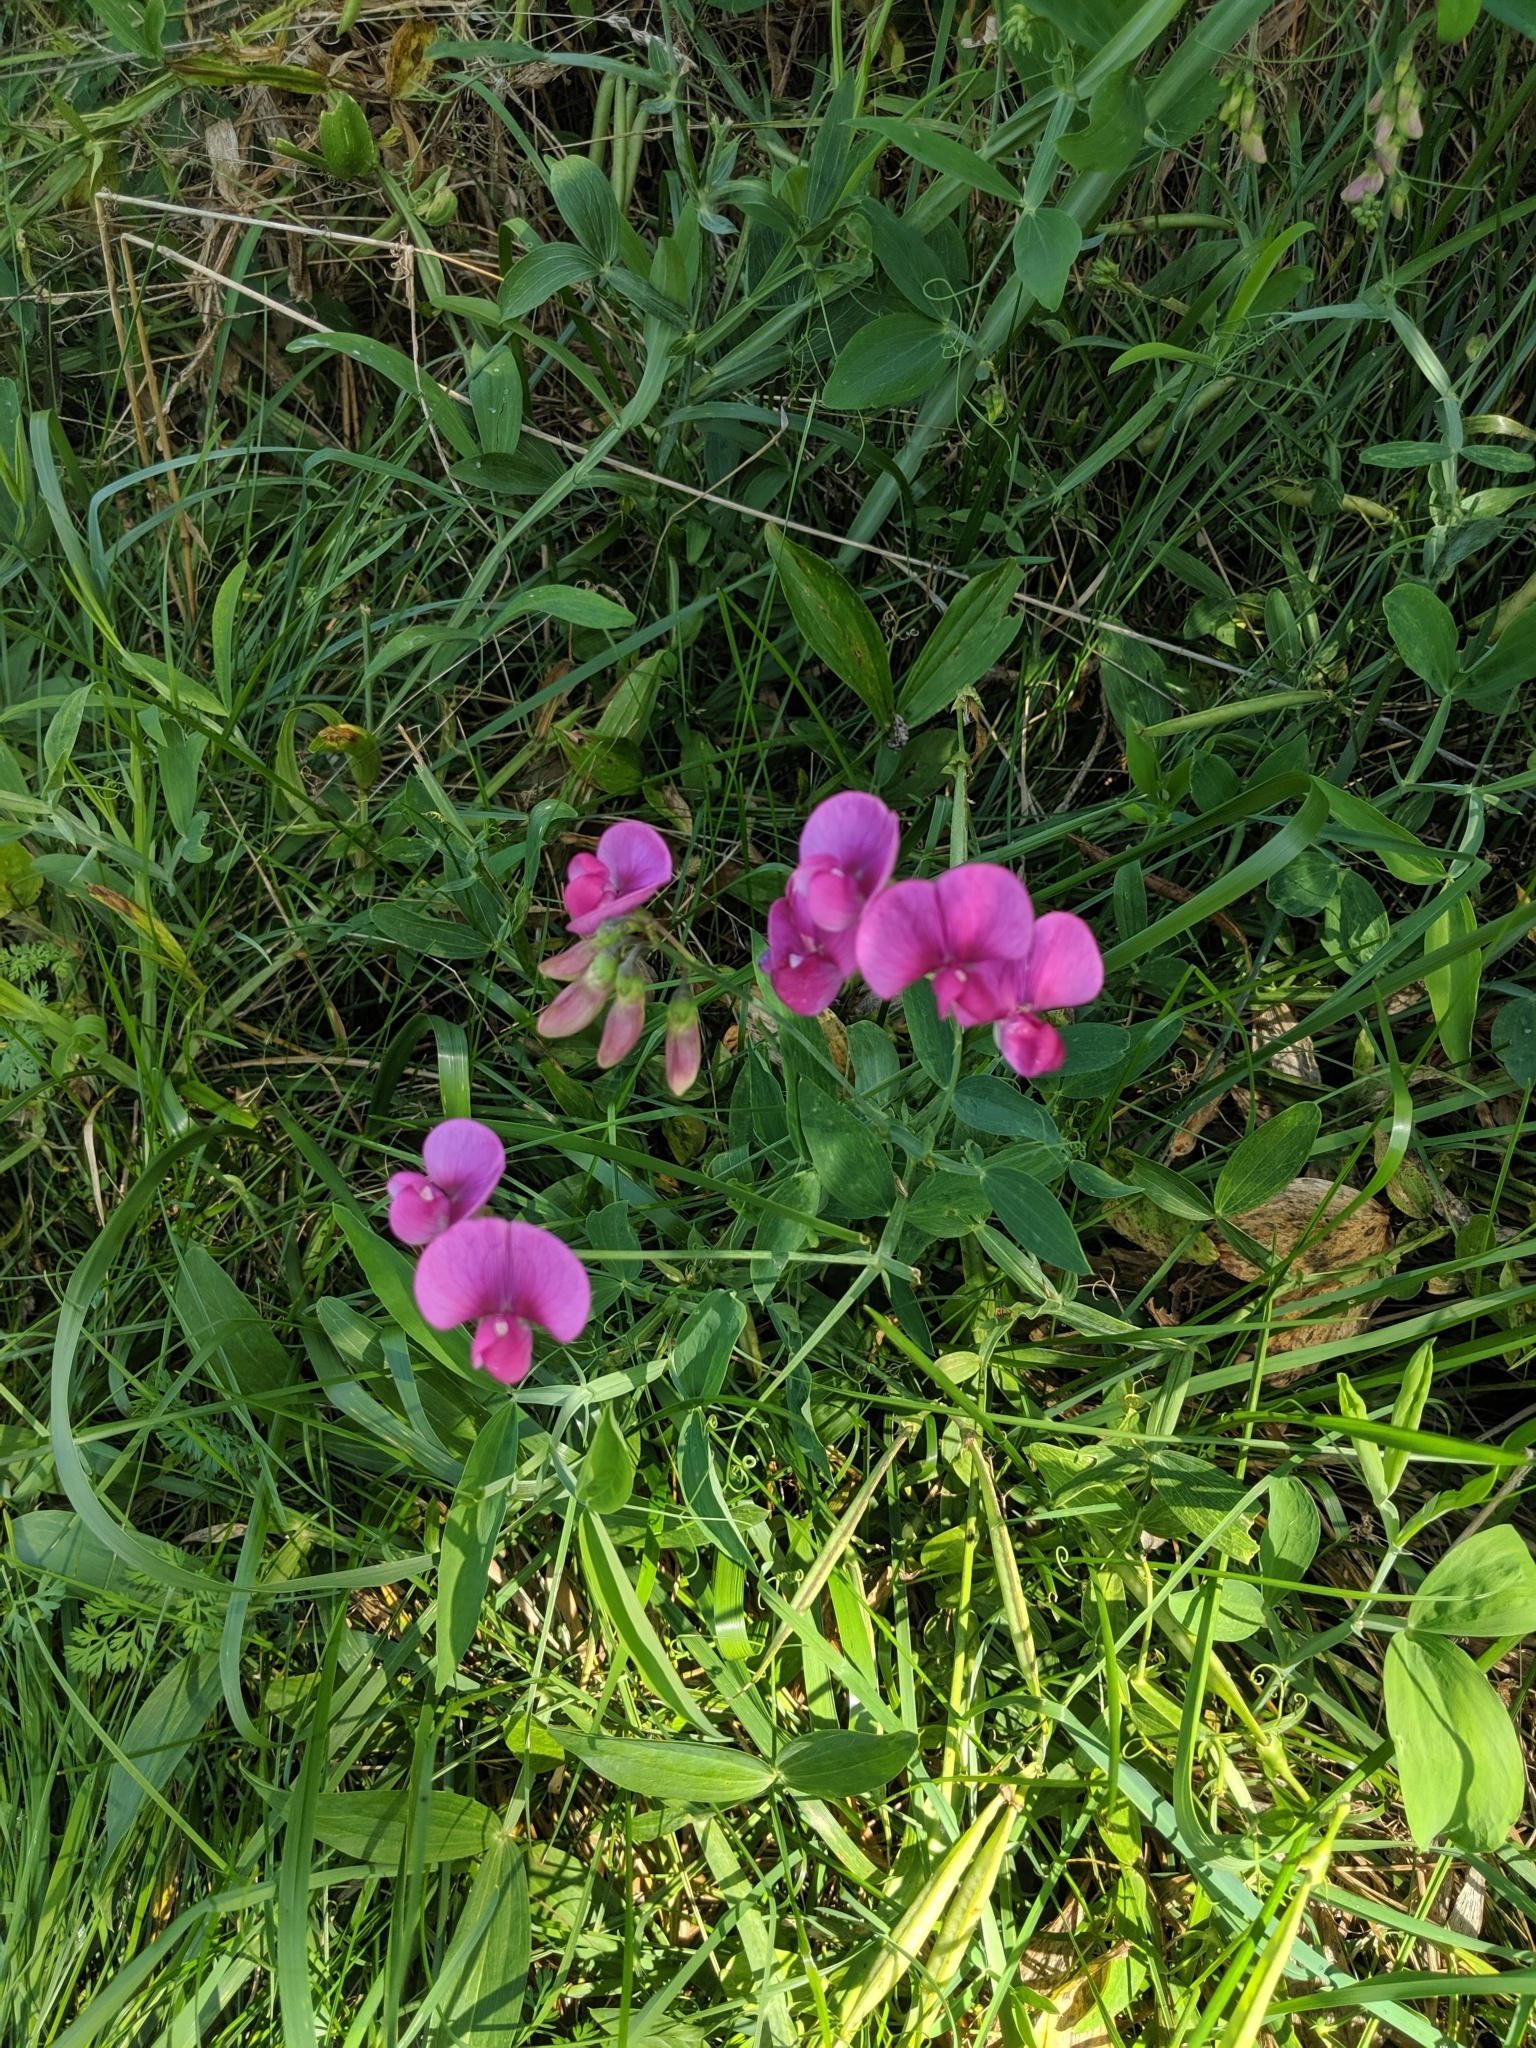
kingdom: Plantae
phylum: Tracheophyta
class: Magnoliopsida
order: Fabales
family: Fabaceae
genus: Lathyrus
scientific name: Lathyrus latifolius
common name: Perennial pea
